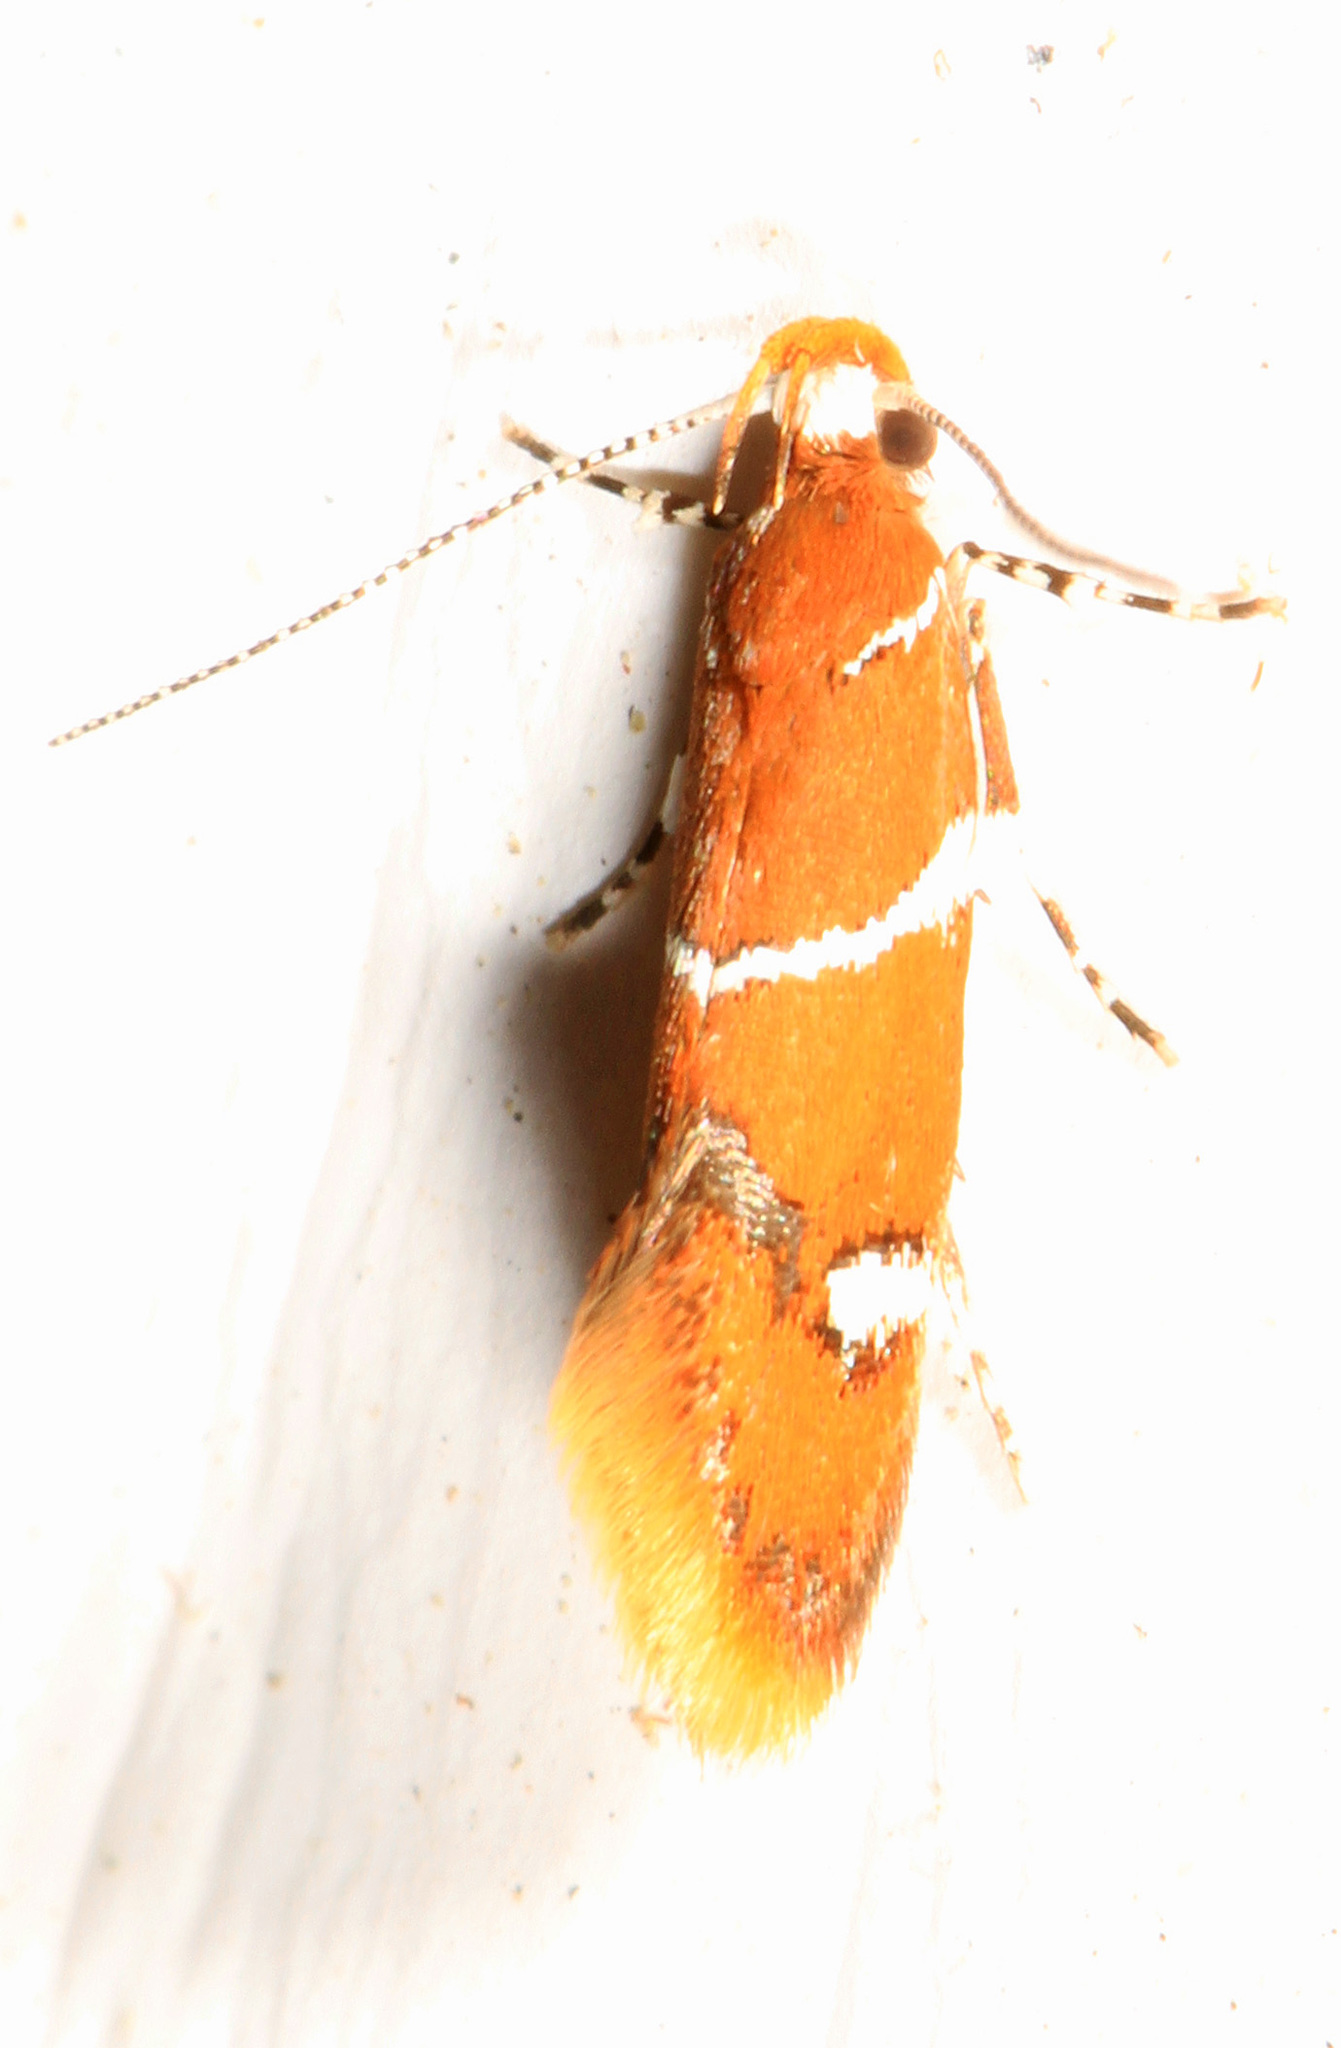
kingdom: Animalia
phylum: Arthropoda
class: Insecta
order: Lepidoptera
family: Oecophoridae
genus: Promalactis
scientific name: Promalactis suzukiella
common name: Moth
